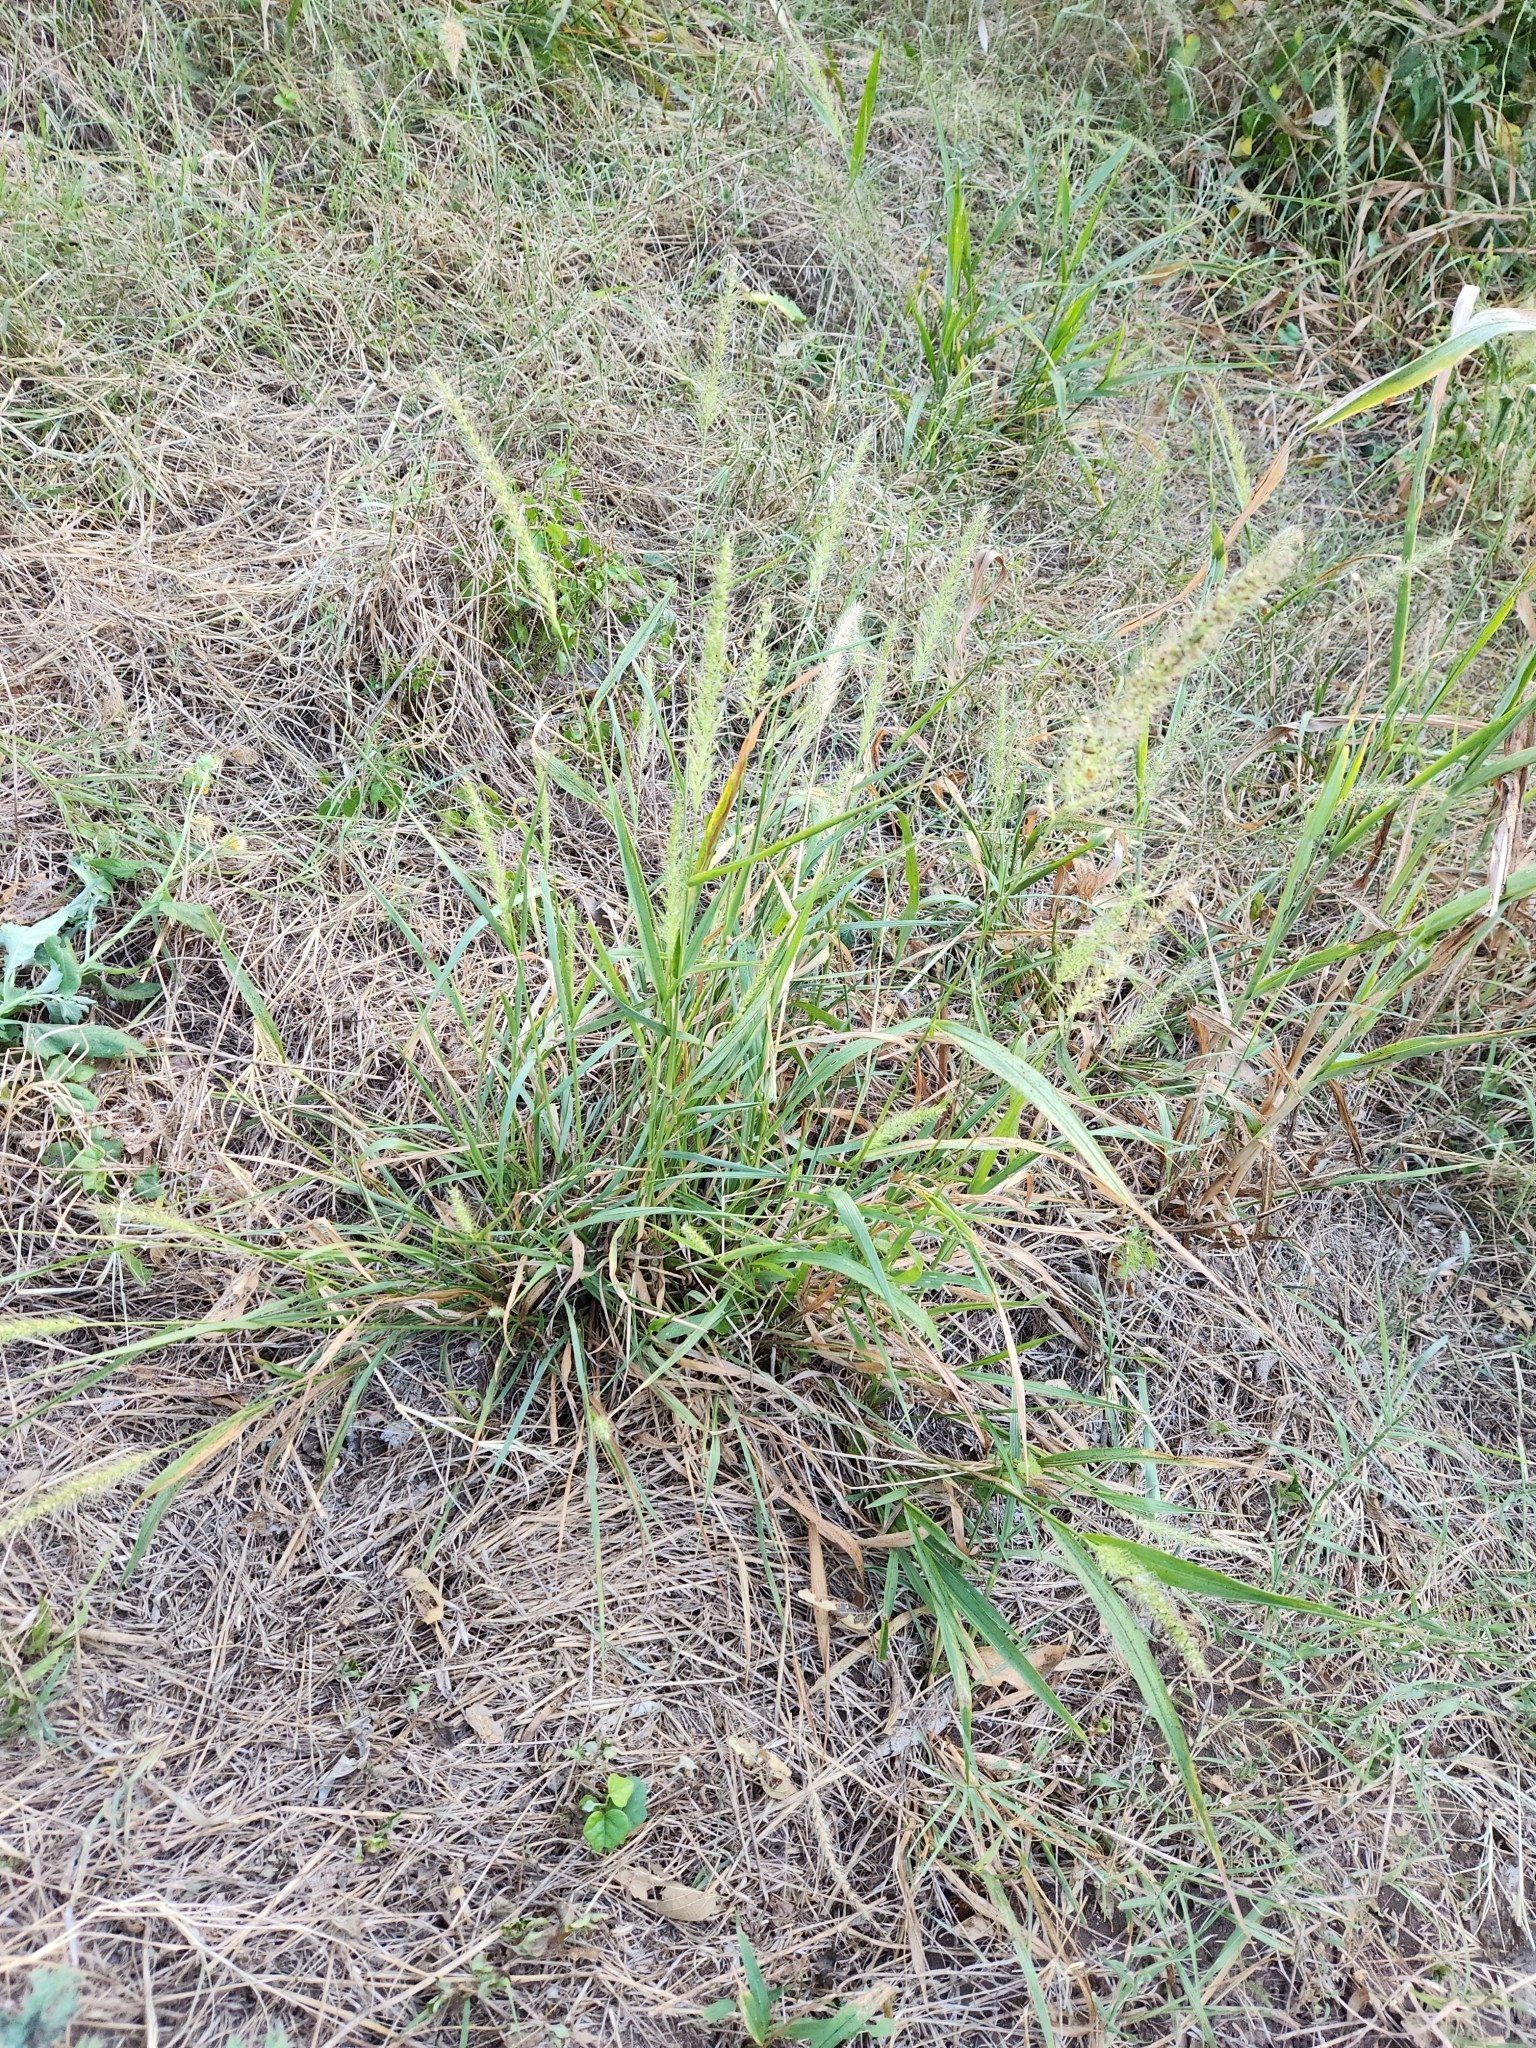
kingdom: Plantae
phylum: Tracheophyta
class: Liliopsida
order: Poales
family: Poaceae
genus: Setaria
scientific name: Setaria scheelei
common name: Southwestern bristle grass
